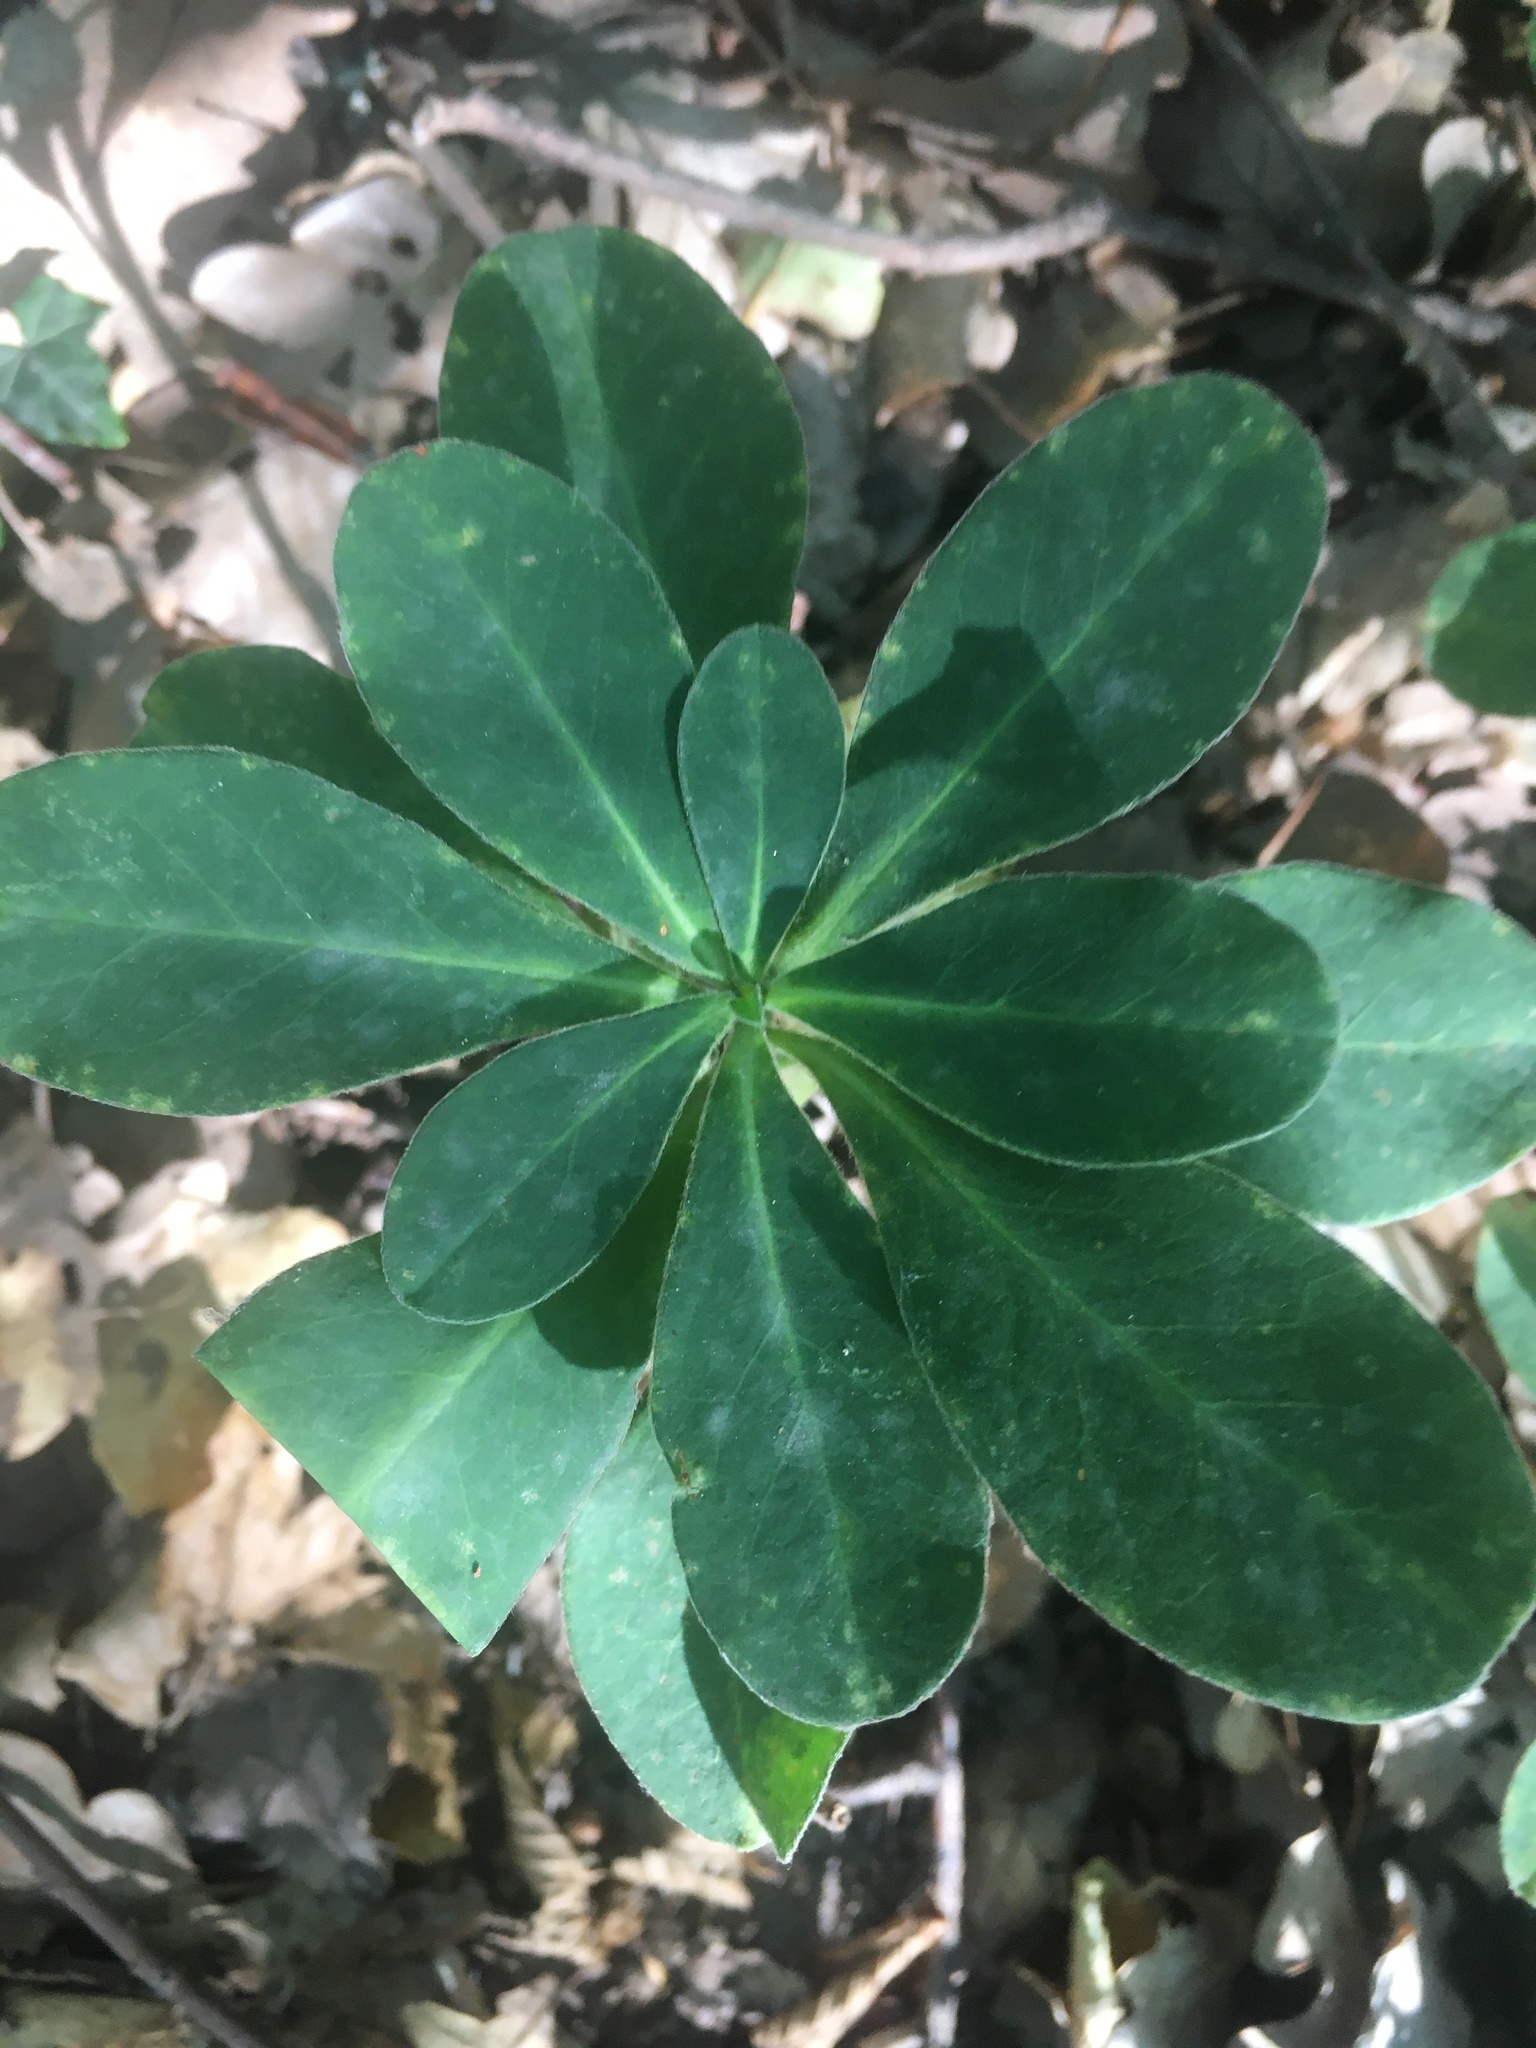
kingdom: Plantae
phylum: Tracheophyta
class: Magnoliopsida
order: Malpighiales
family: Euphorbiaceae
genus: Euphorbia
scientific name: Euphorbia amygdaloides
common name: Wood spurge
